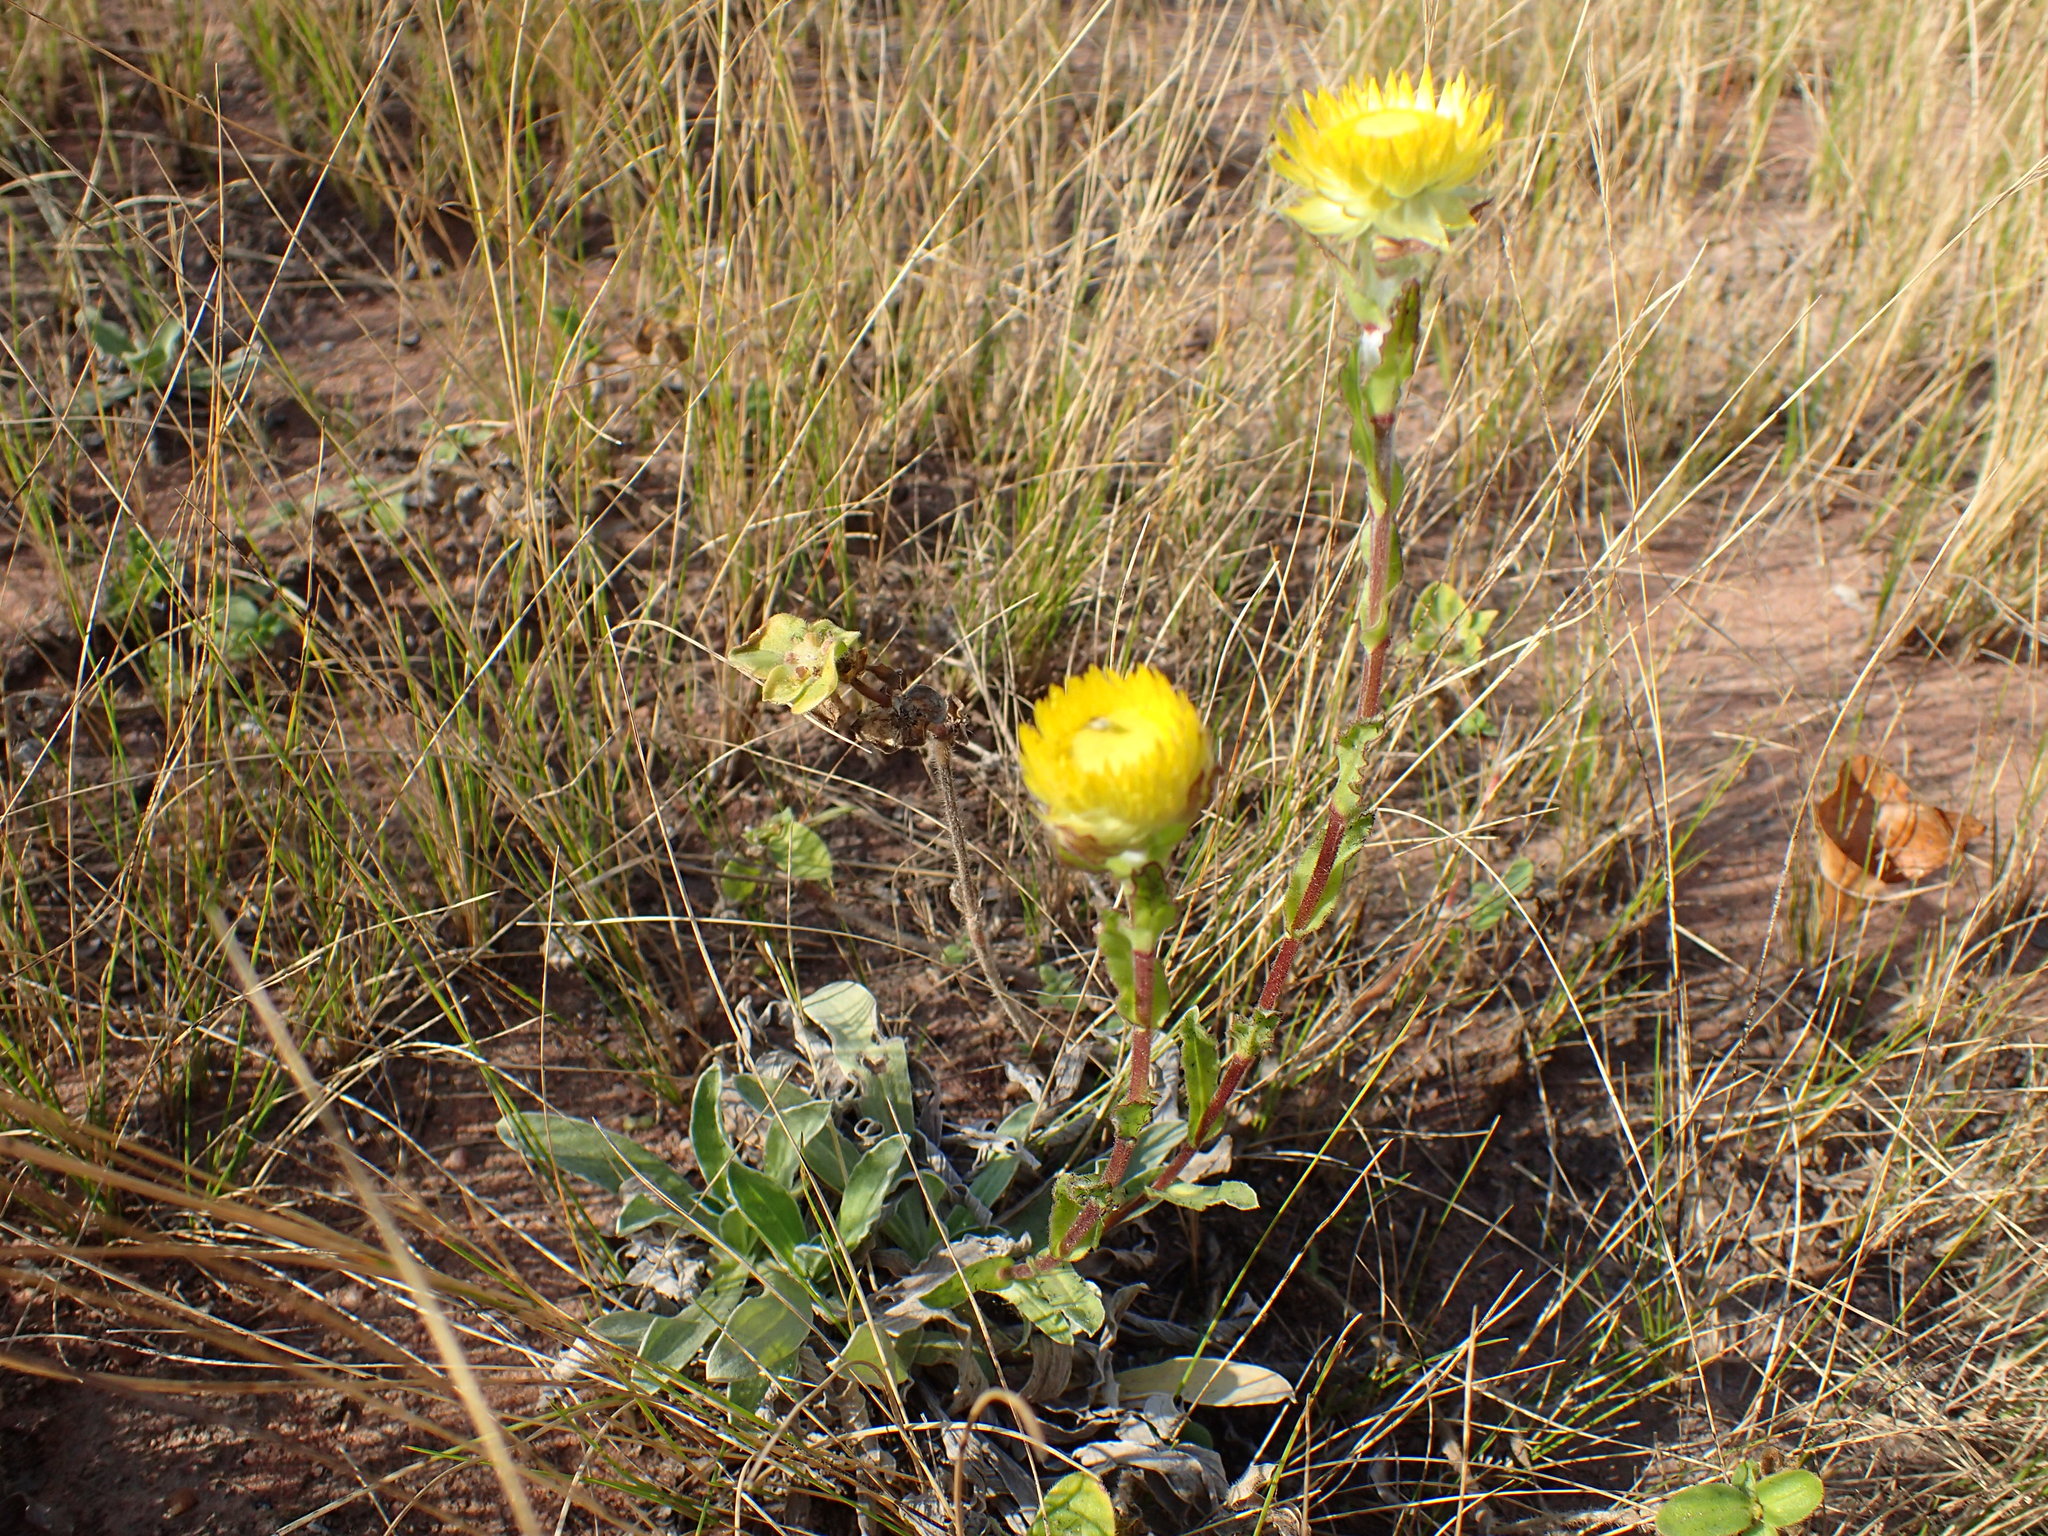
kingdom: Plantae
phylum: Tracheophyta
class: Magnoliopsida
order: Asterales
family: Asteraceae
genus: Helichrysum
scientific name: Helichrysum aureum
